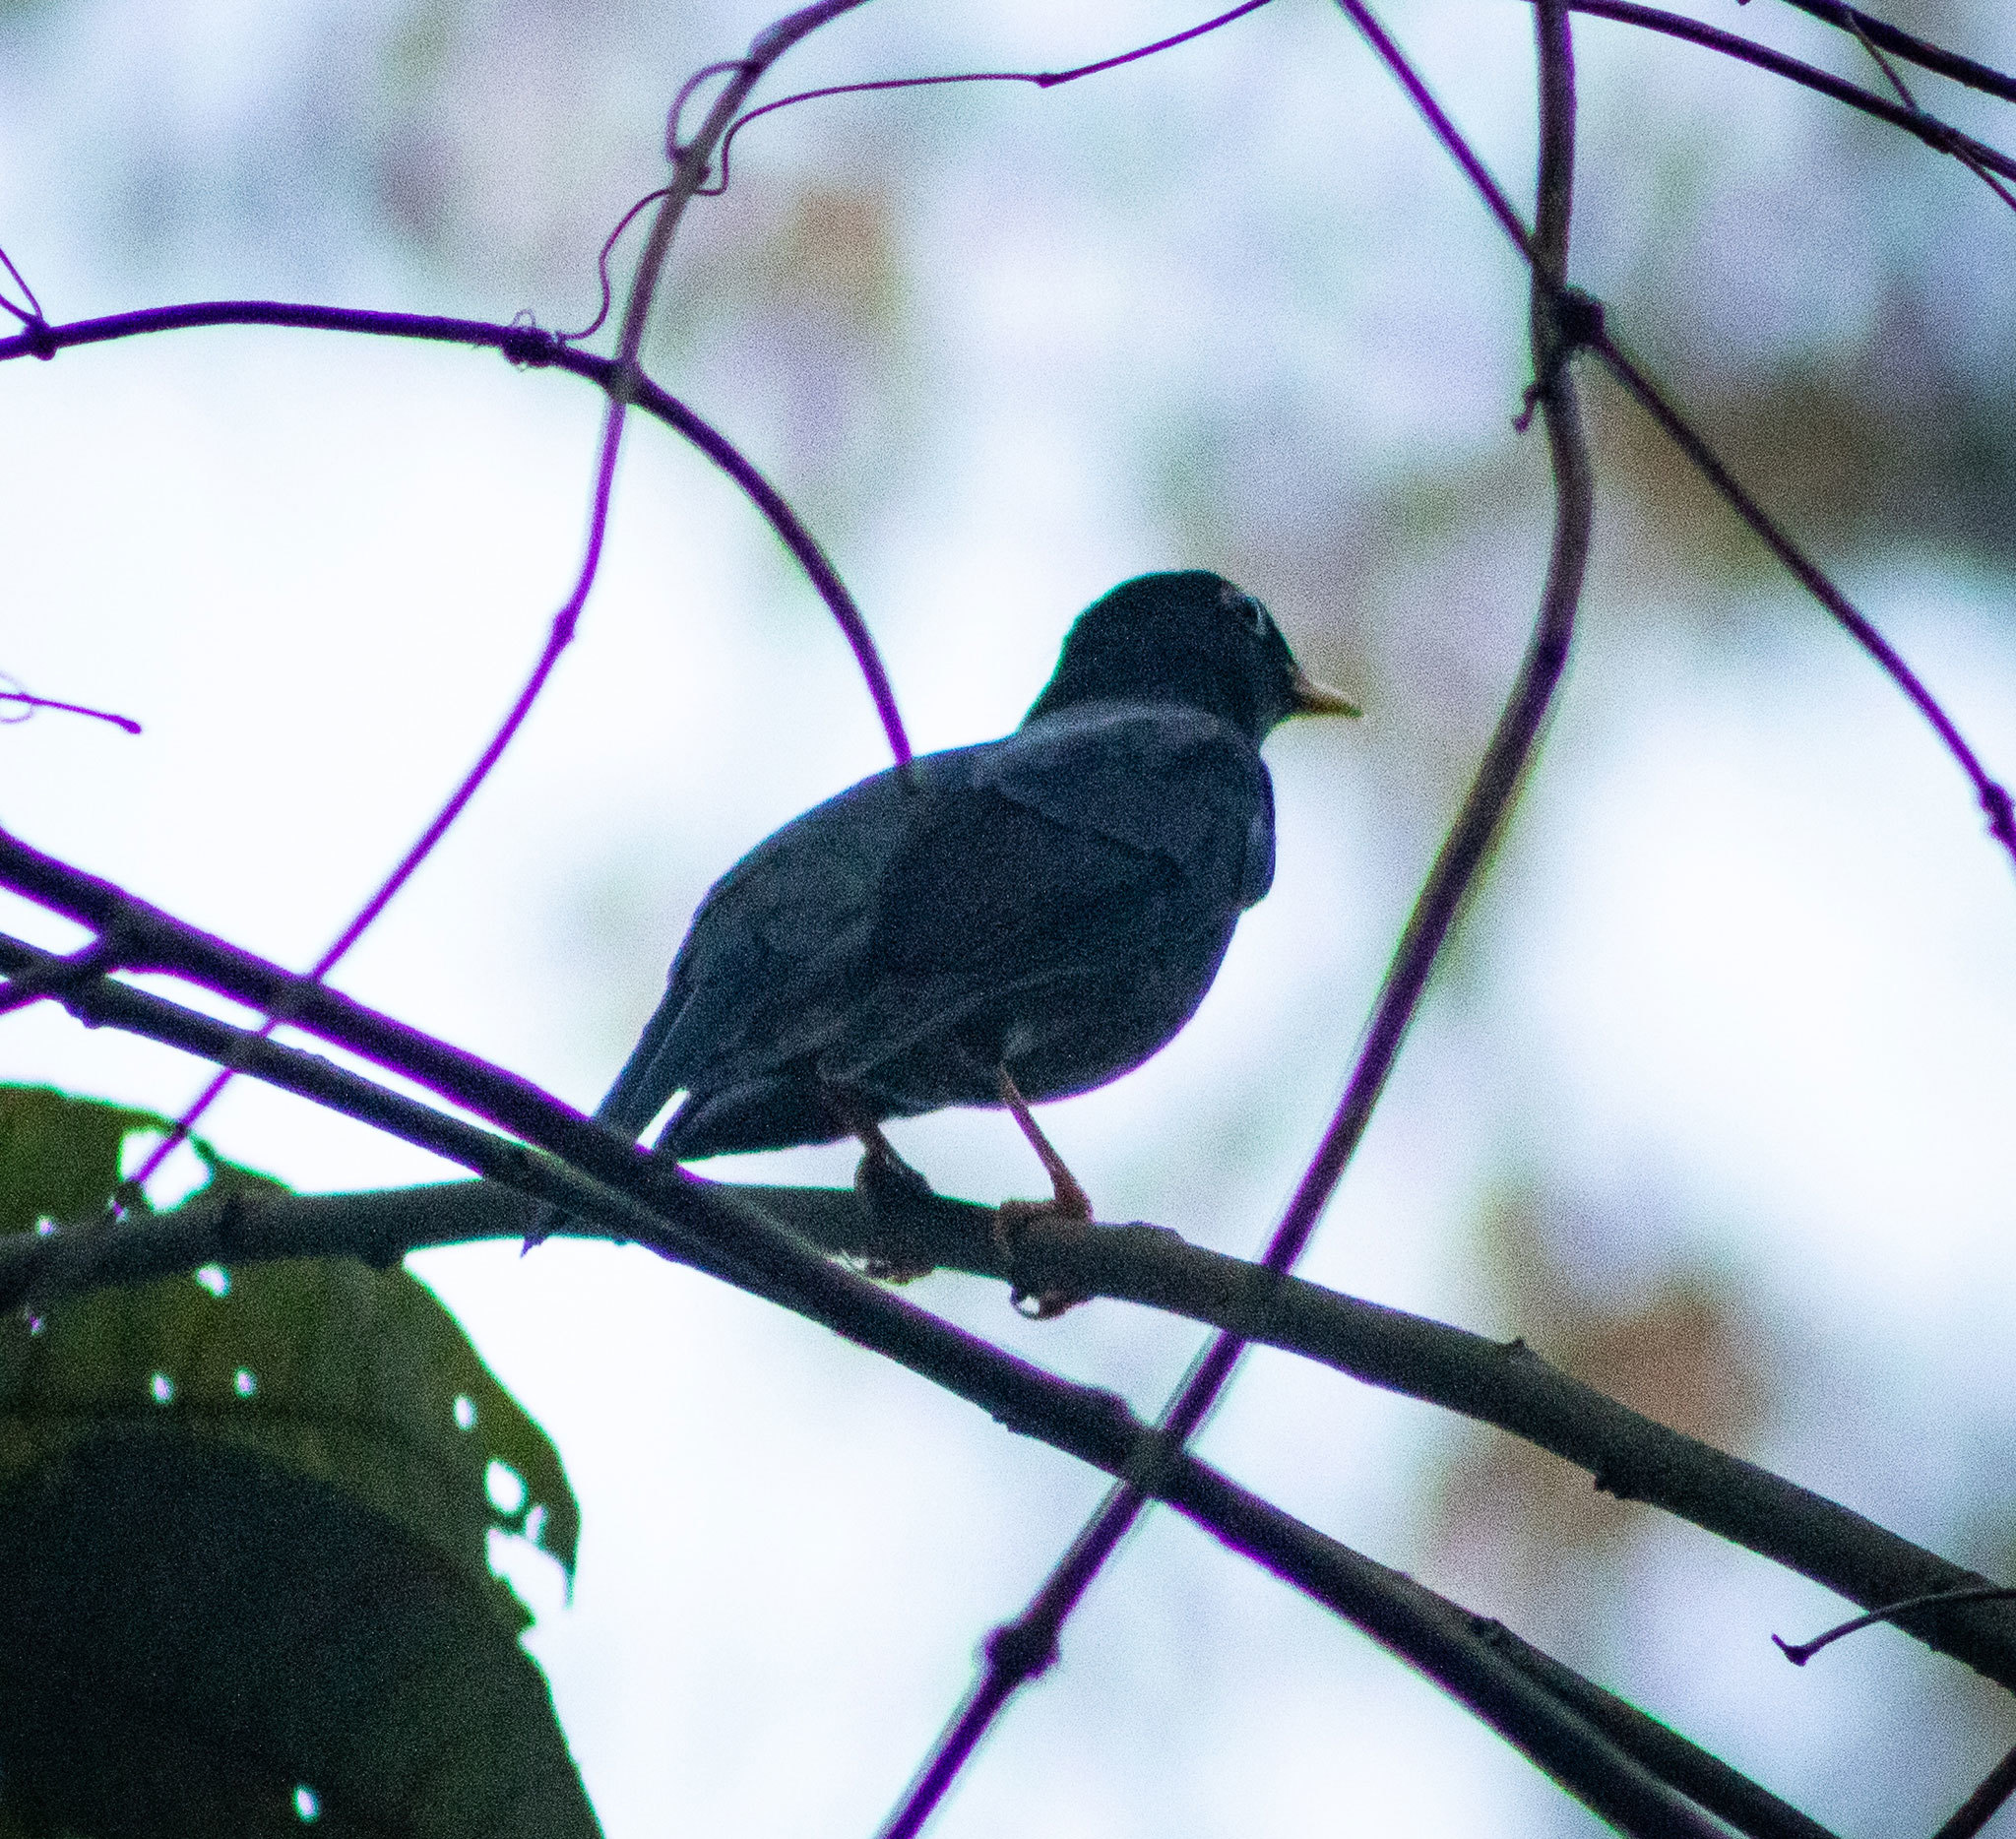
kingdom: Animalia
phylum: Chordata
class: Aves
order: Passeriformes
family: Turdidae
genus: Turdus
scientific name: Turdus flavipes
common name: Yellow-legged thrush
